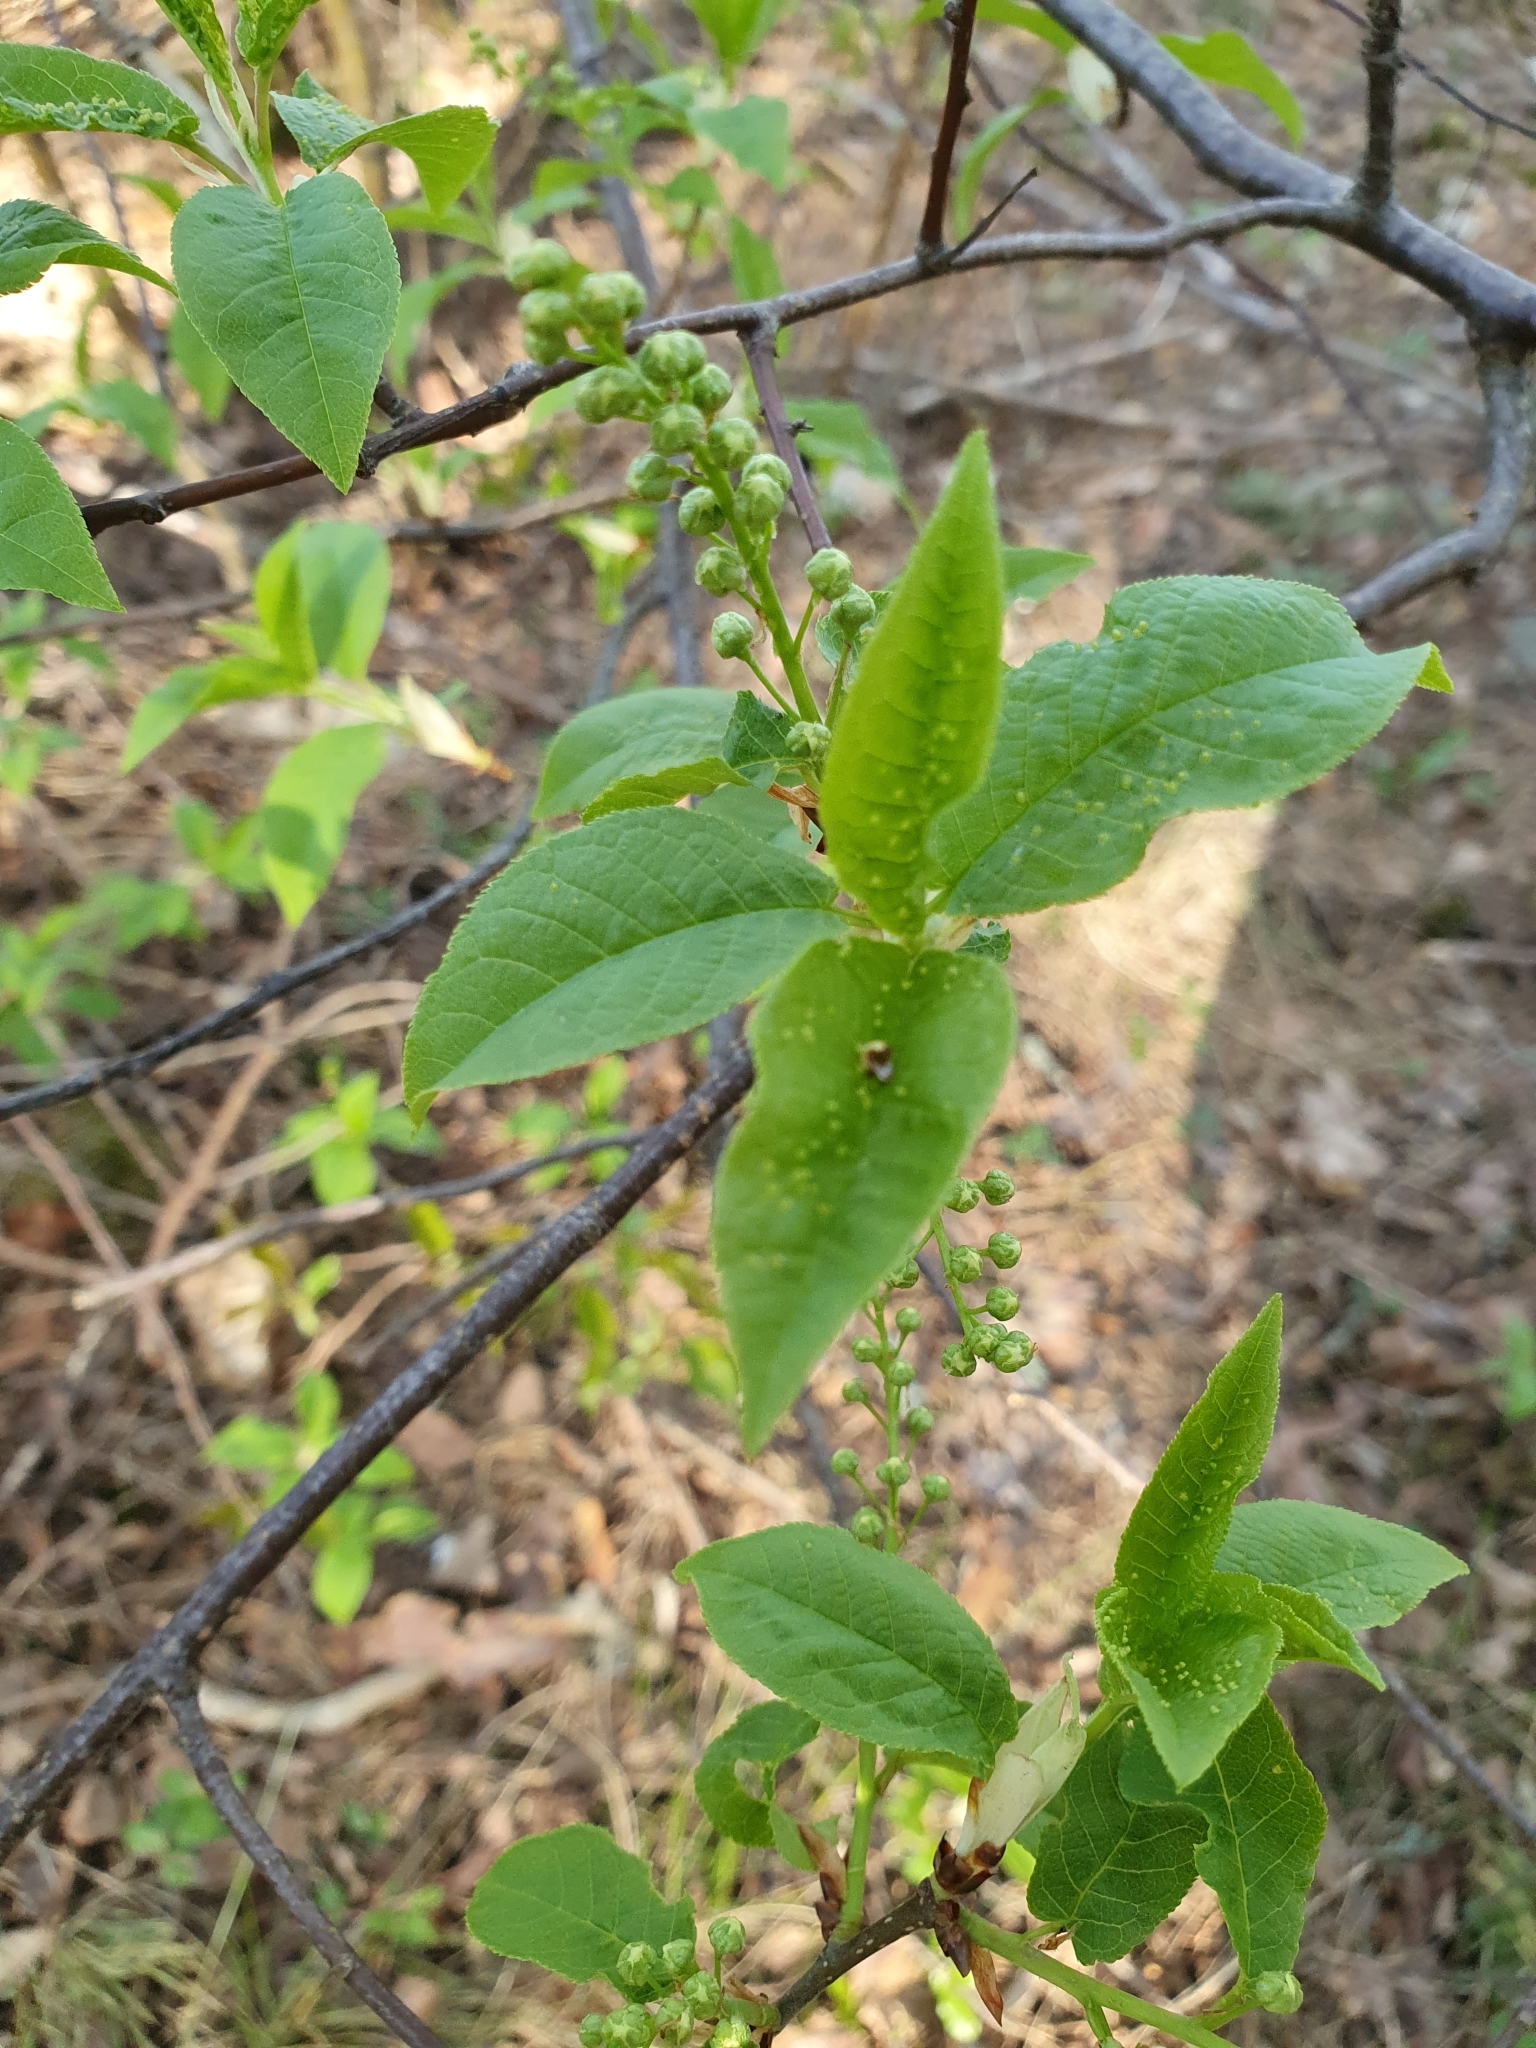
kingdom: Plantae
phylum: Tracheophyta
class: Magnoliopsida
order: Rosales
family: Rosaceae
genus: Prunus
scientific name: Prunus padus
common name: Bird cherry
